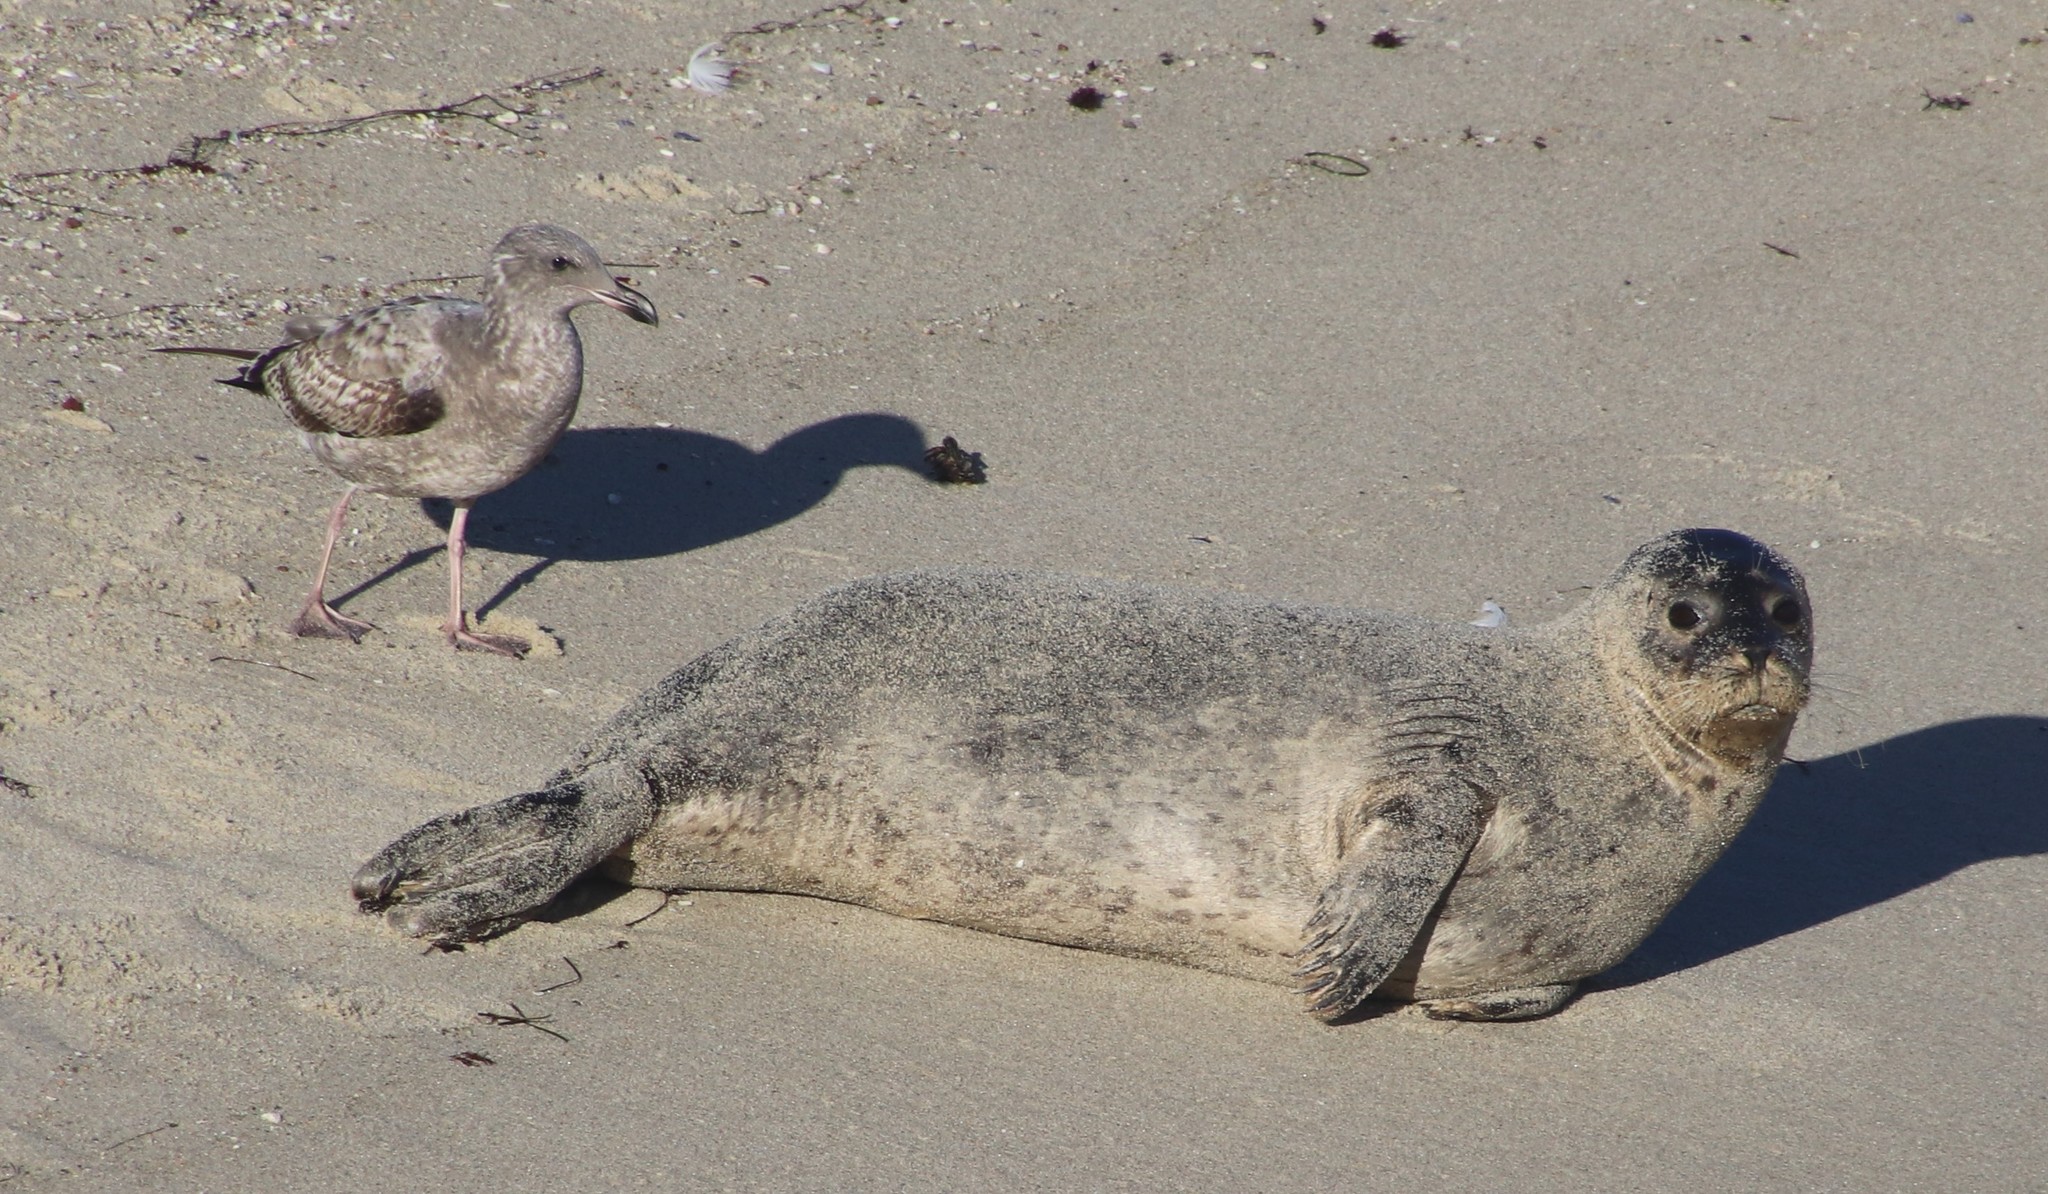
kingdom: Animalia
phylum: Chordata
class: Mammalia
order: Carnivora
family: Phocidae
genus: Phoca
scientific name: Phoca vitulina
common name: Harbor seal
